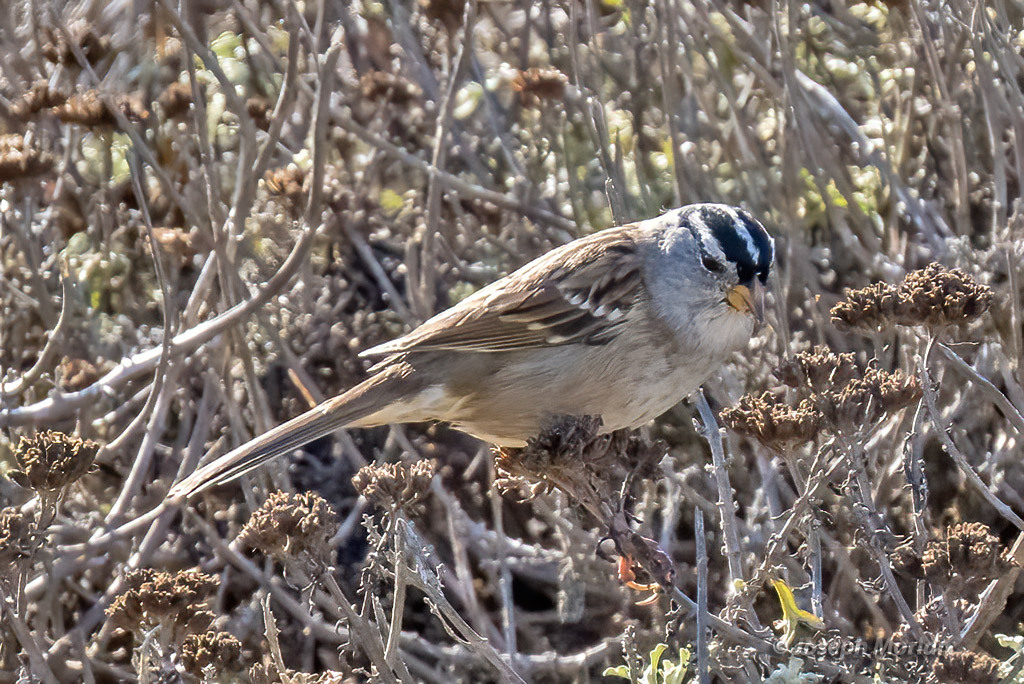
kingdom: Animalia
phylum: Chordata
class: Aves
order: Passeriformes
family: Passerellidae
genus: Zonotrichia
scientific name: Zonotrichia leucophrys
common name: White-crowned sparrow
